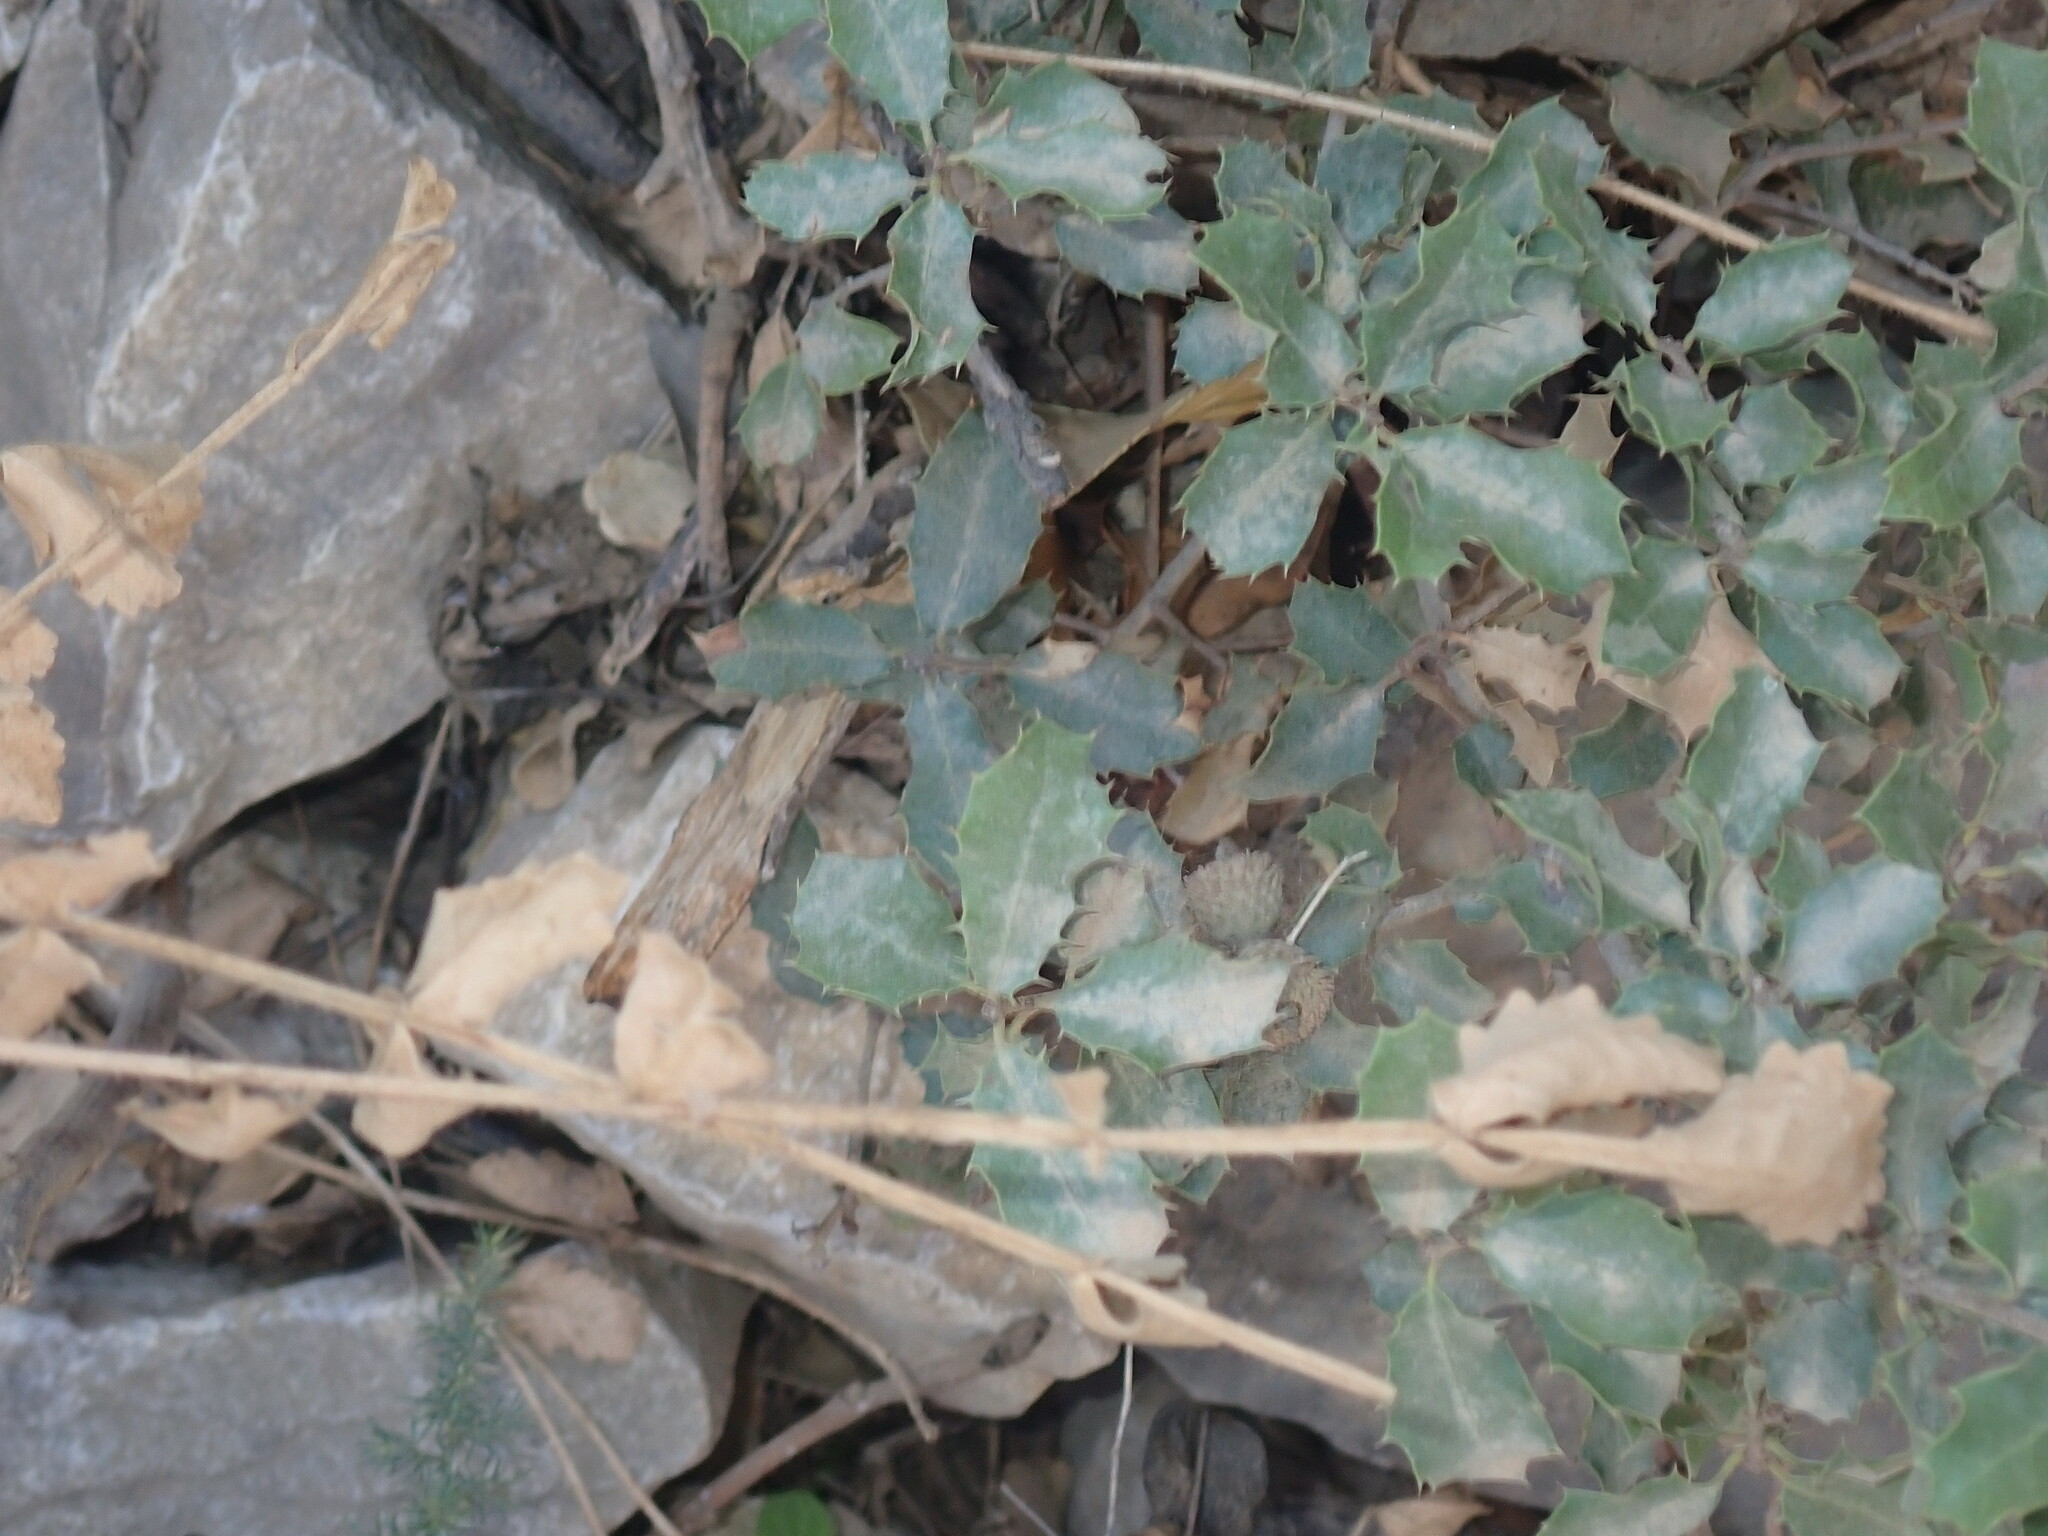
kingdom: Plantae
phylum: Tracheophyta
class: Magnoliopsida
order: Fagales
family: Fagaceae
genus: Quercus
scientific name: Quercus coccifera
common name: Kermes oak
